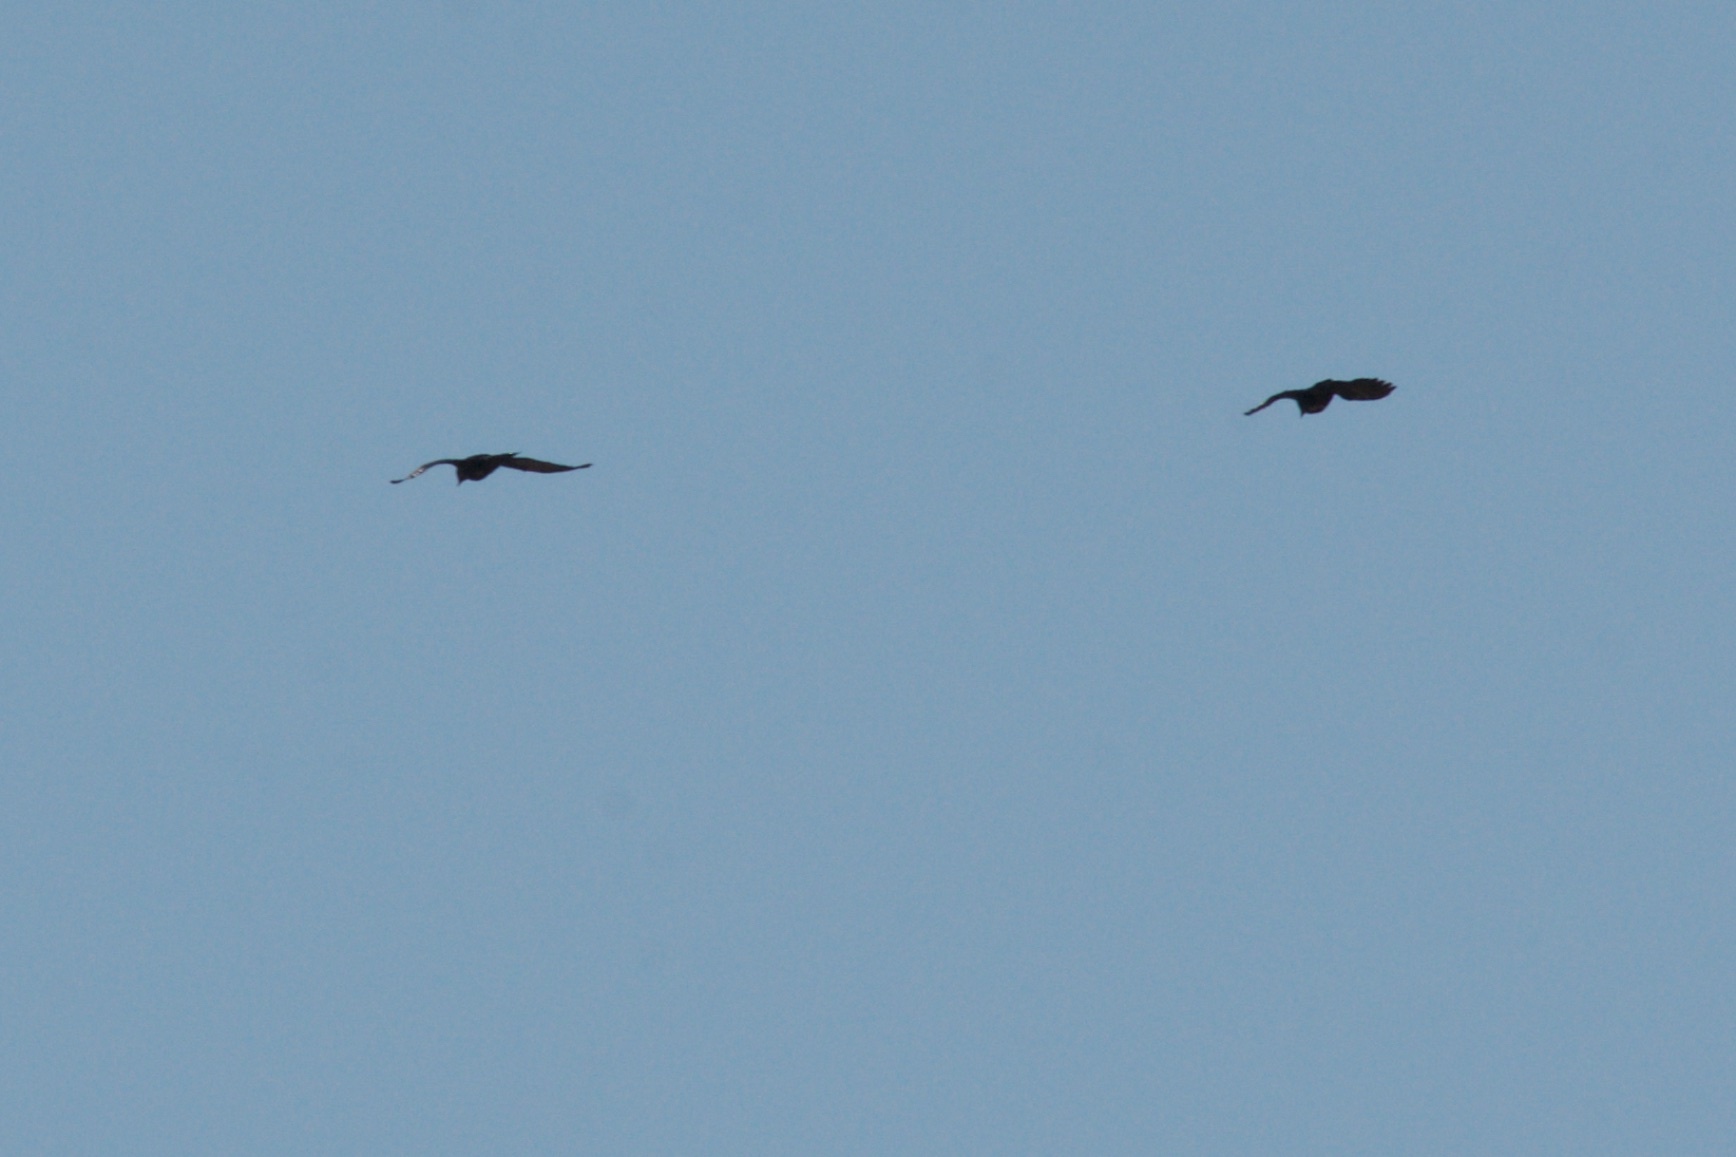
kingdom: Animalia
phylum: Chordata
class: Aves
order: Passeriformes
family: Corvidae
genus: Corvus
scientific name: Corvus brachyrhynchos
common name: American crow
